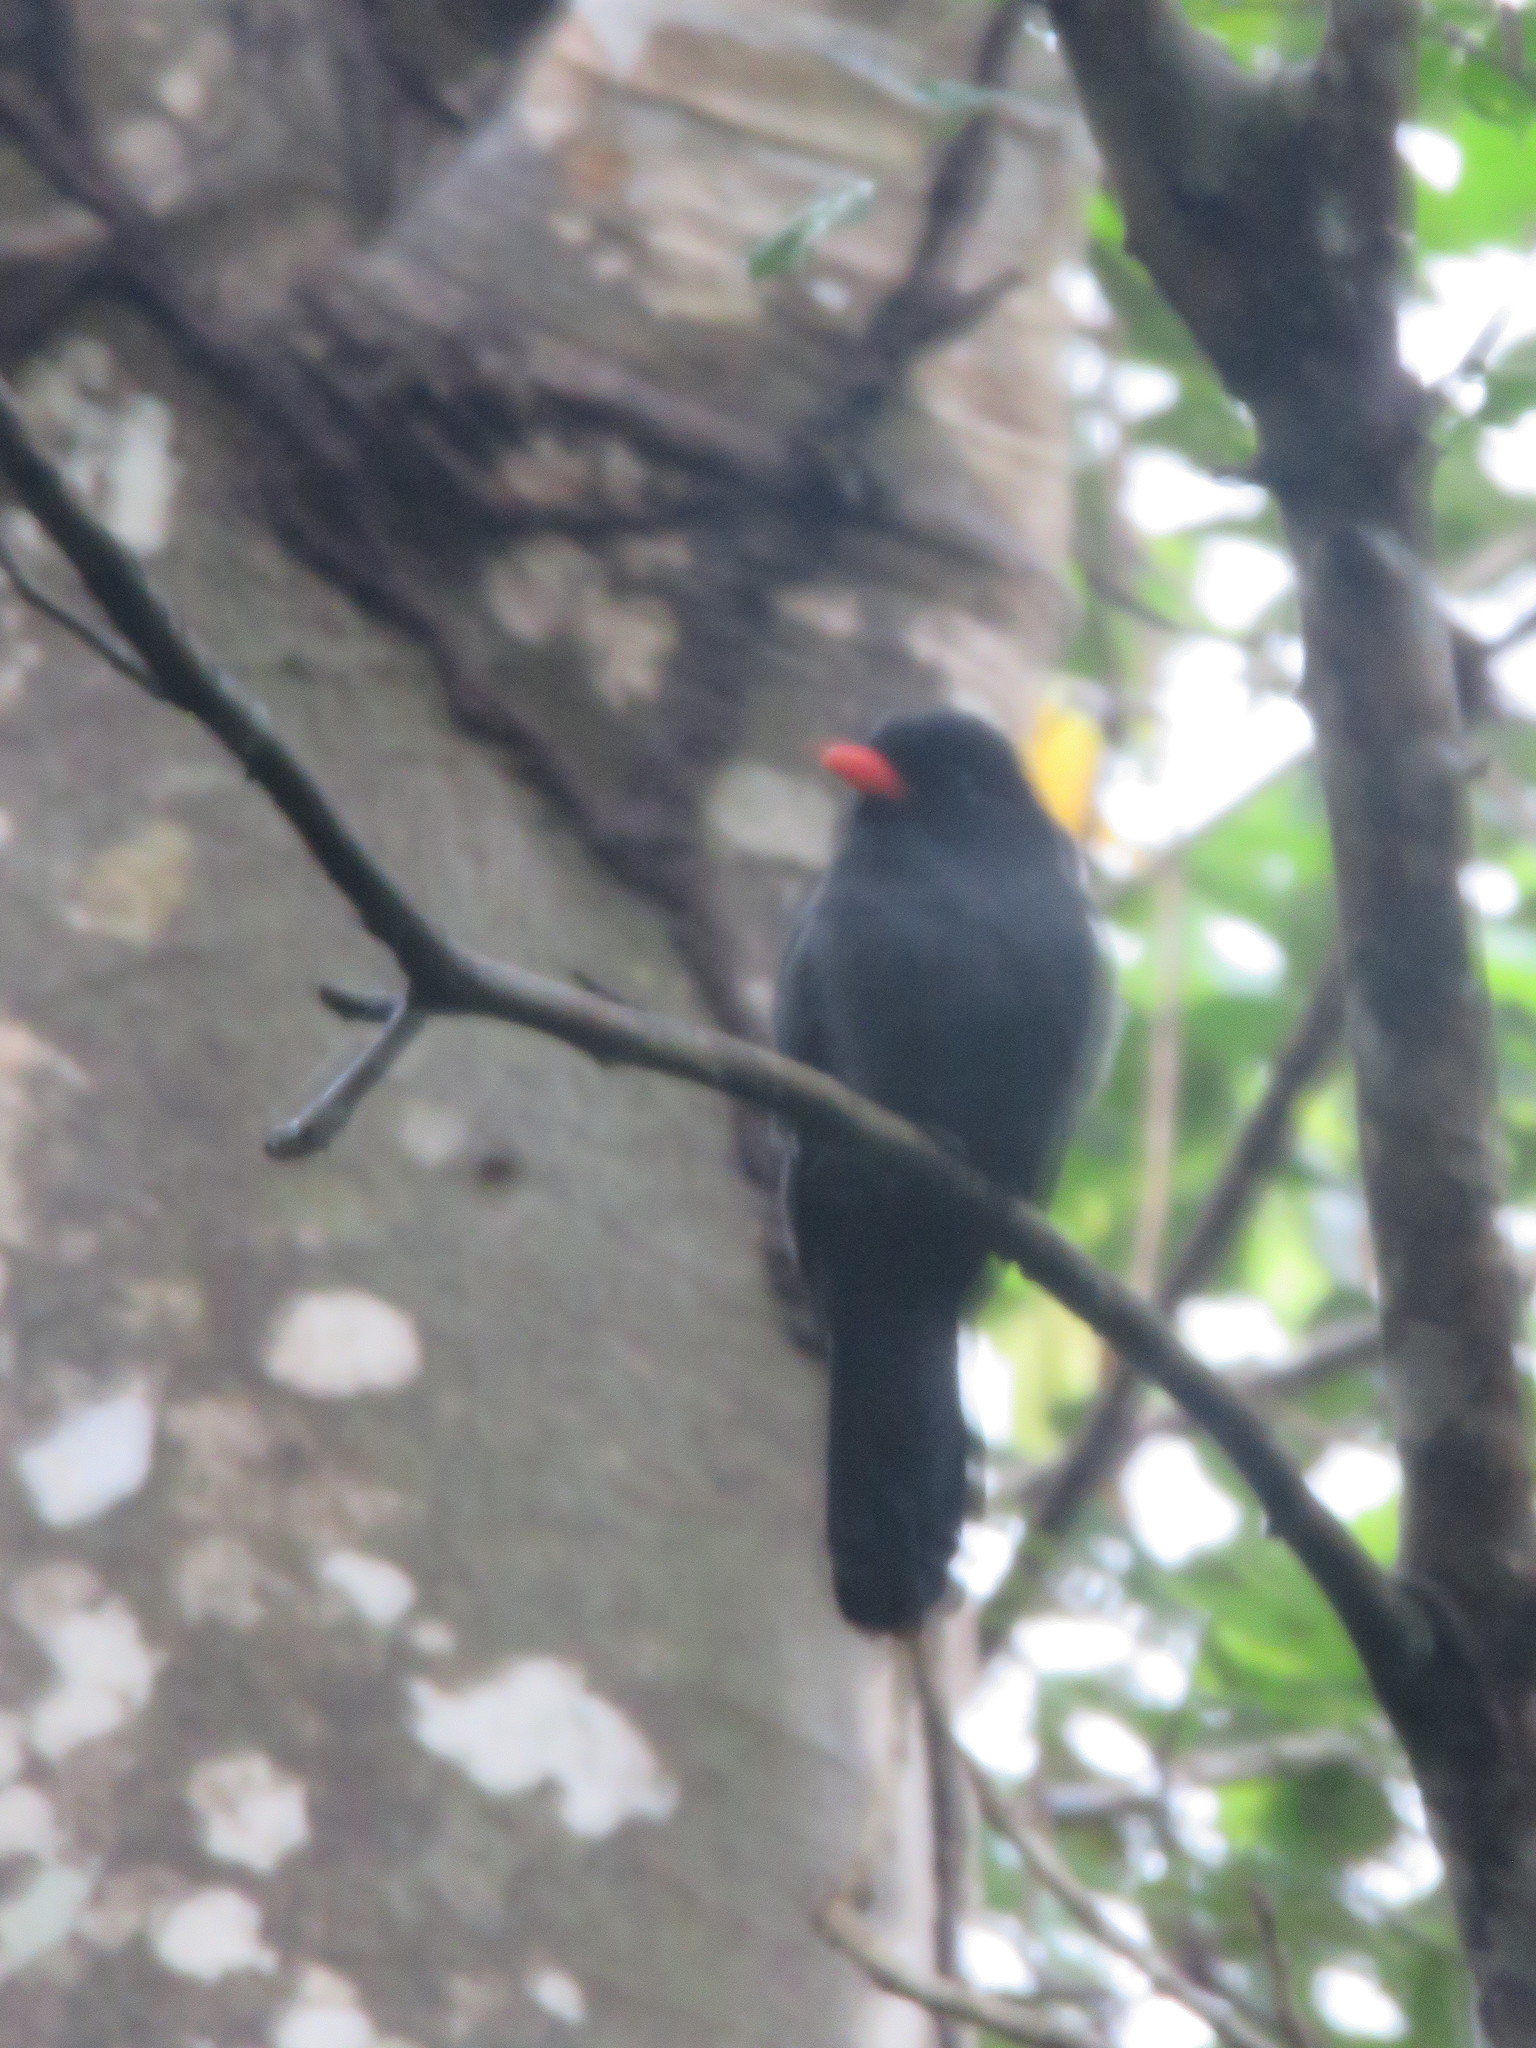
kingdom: Animalia
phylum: Chordata
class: Aves
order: Piciformes
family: Bucconidae
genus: Monasa
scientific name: Monasa nigrifrons
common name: Black-fronted nunbird
